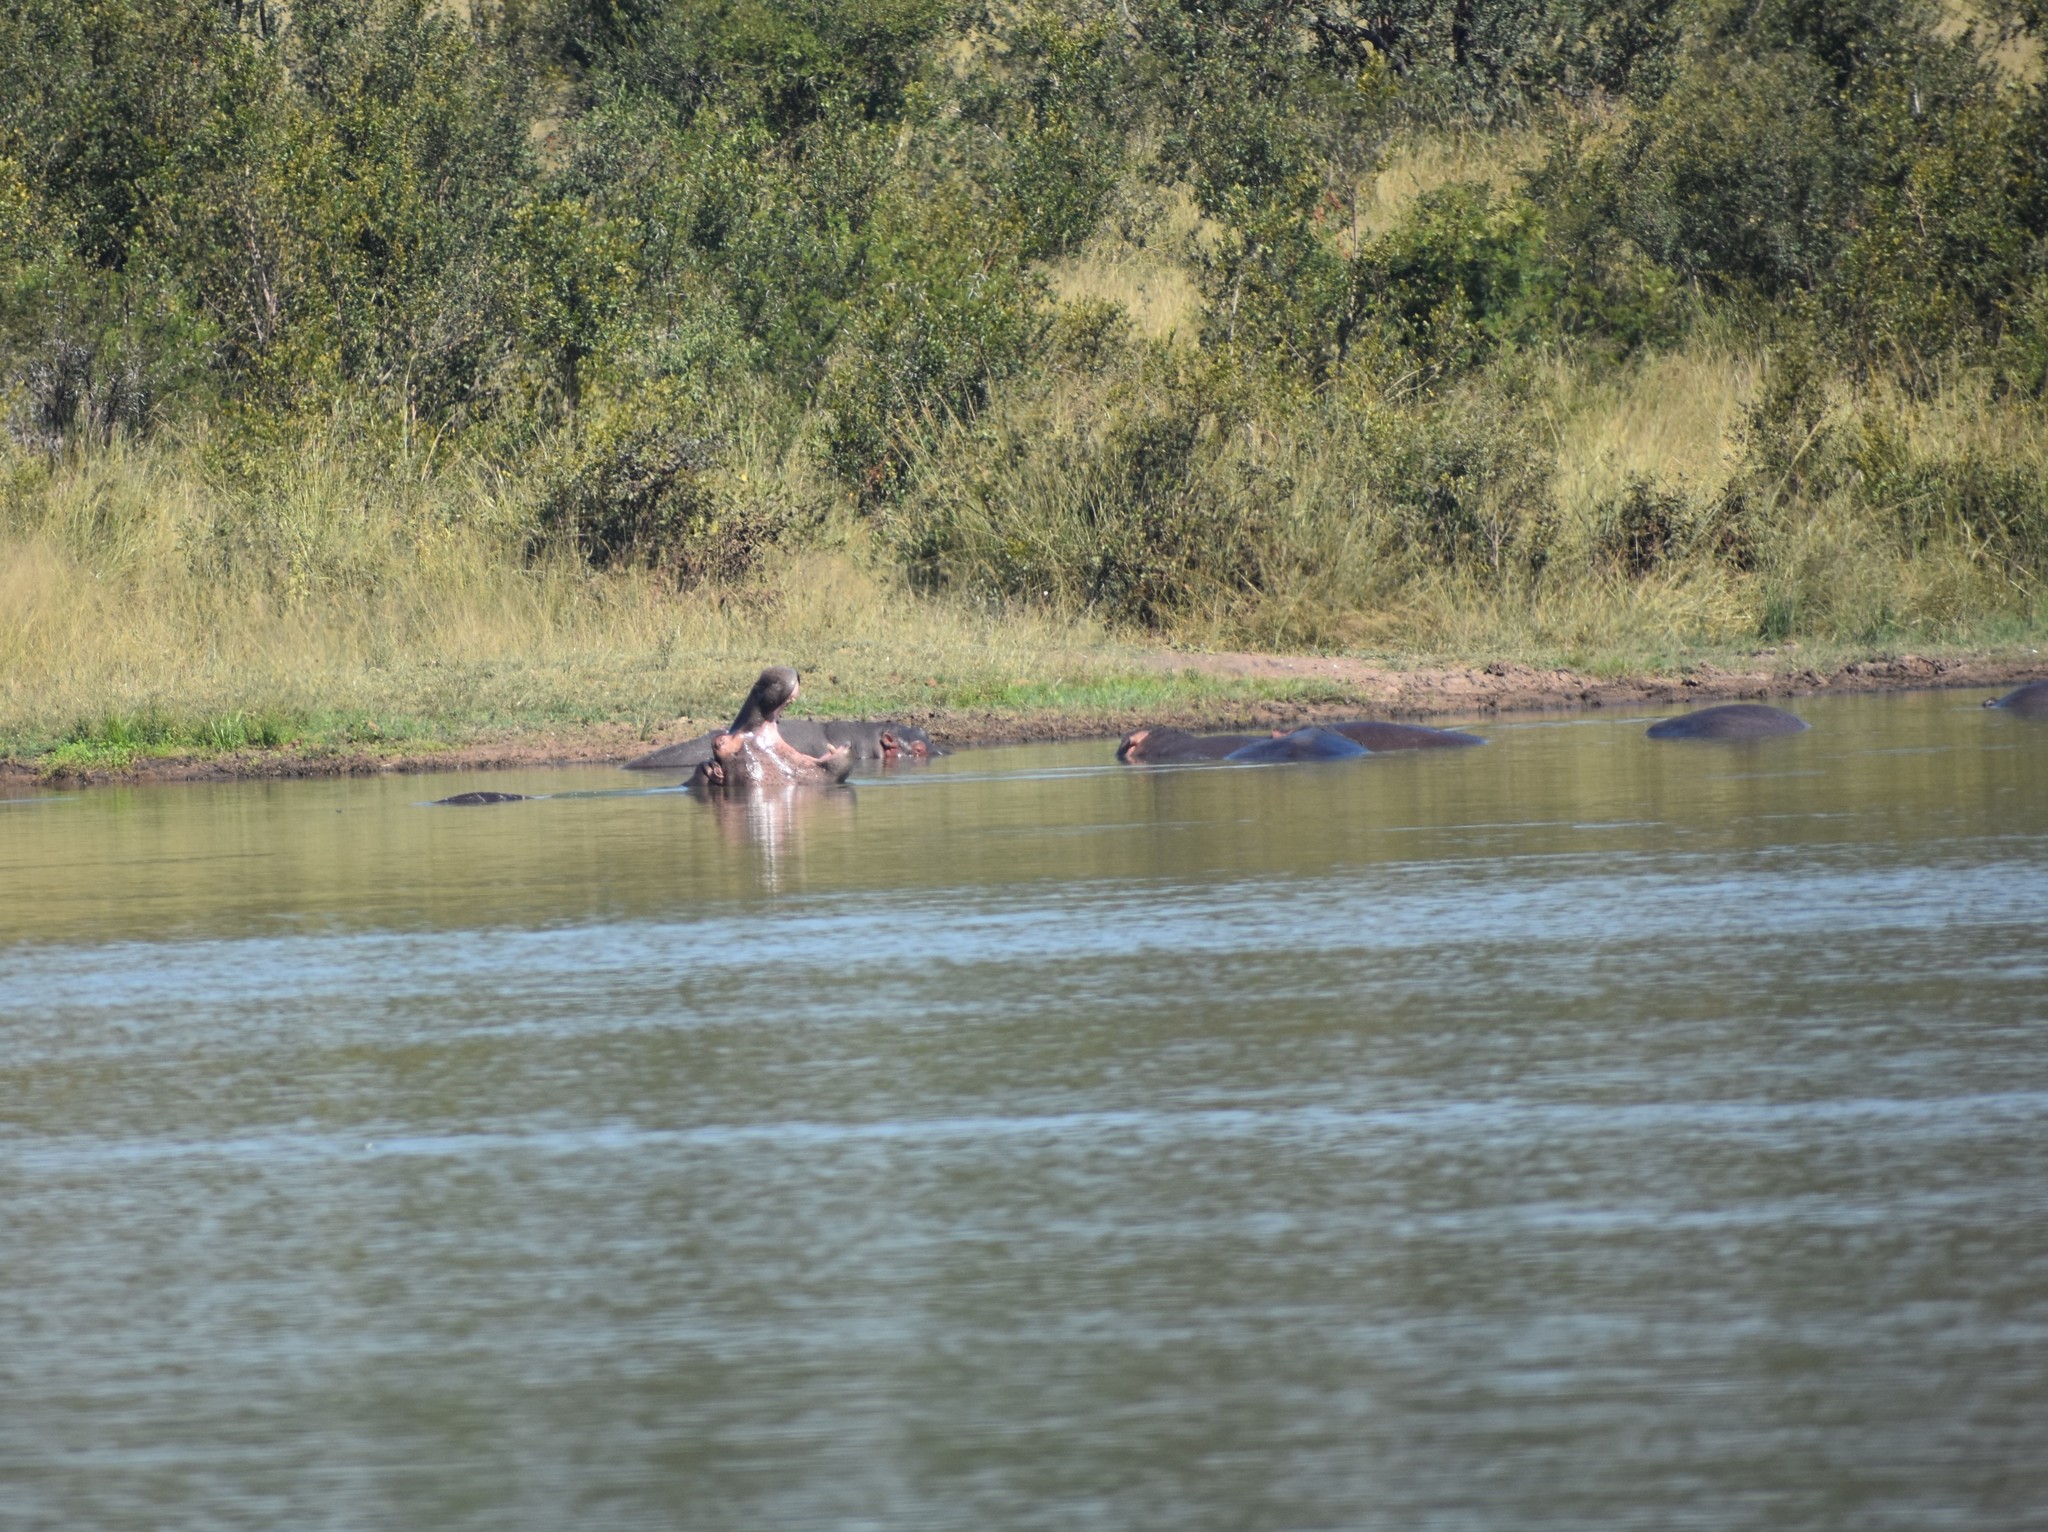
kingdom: Animalia
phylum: Chordata
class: Mammalia
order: Artiodactyla
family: Hippopotamidae
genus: Hippopotamus
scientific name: Hippopotamus amphibius
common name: Common hippopotamus
